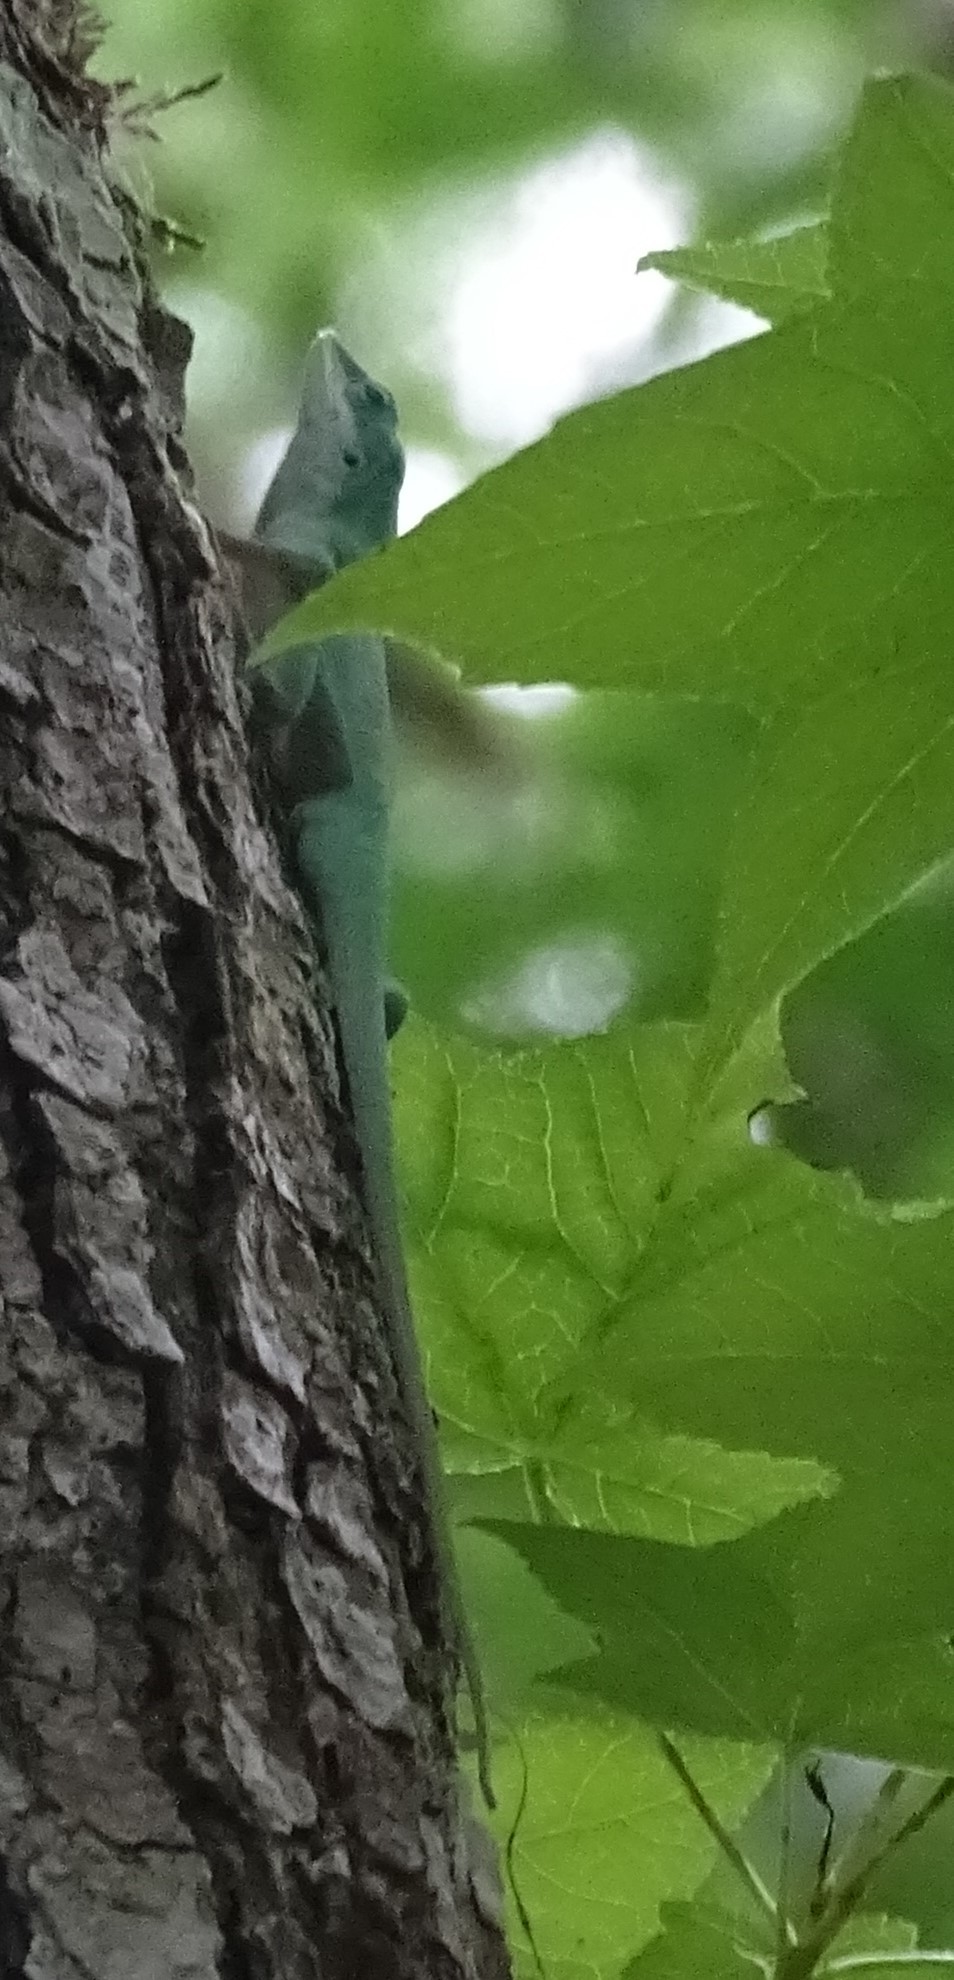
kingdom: Animalia
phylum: Chordata
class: Squamata
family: Dactyloidae
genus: Anolis
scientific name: Anolis carolinensis
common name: Green anole
